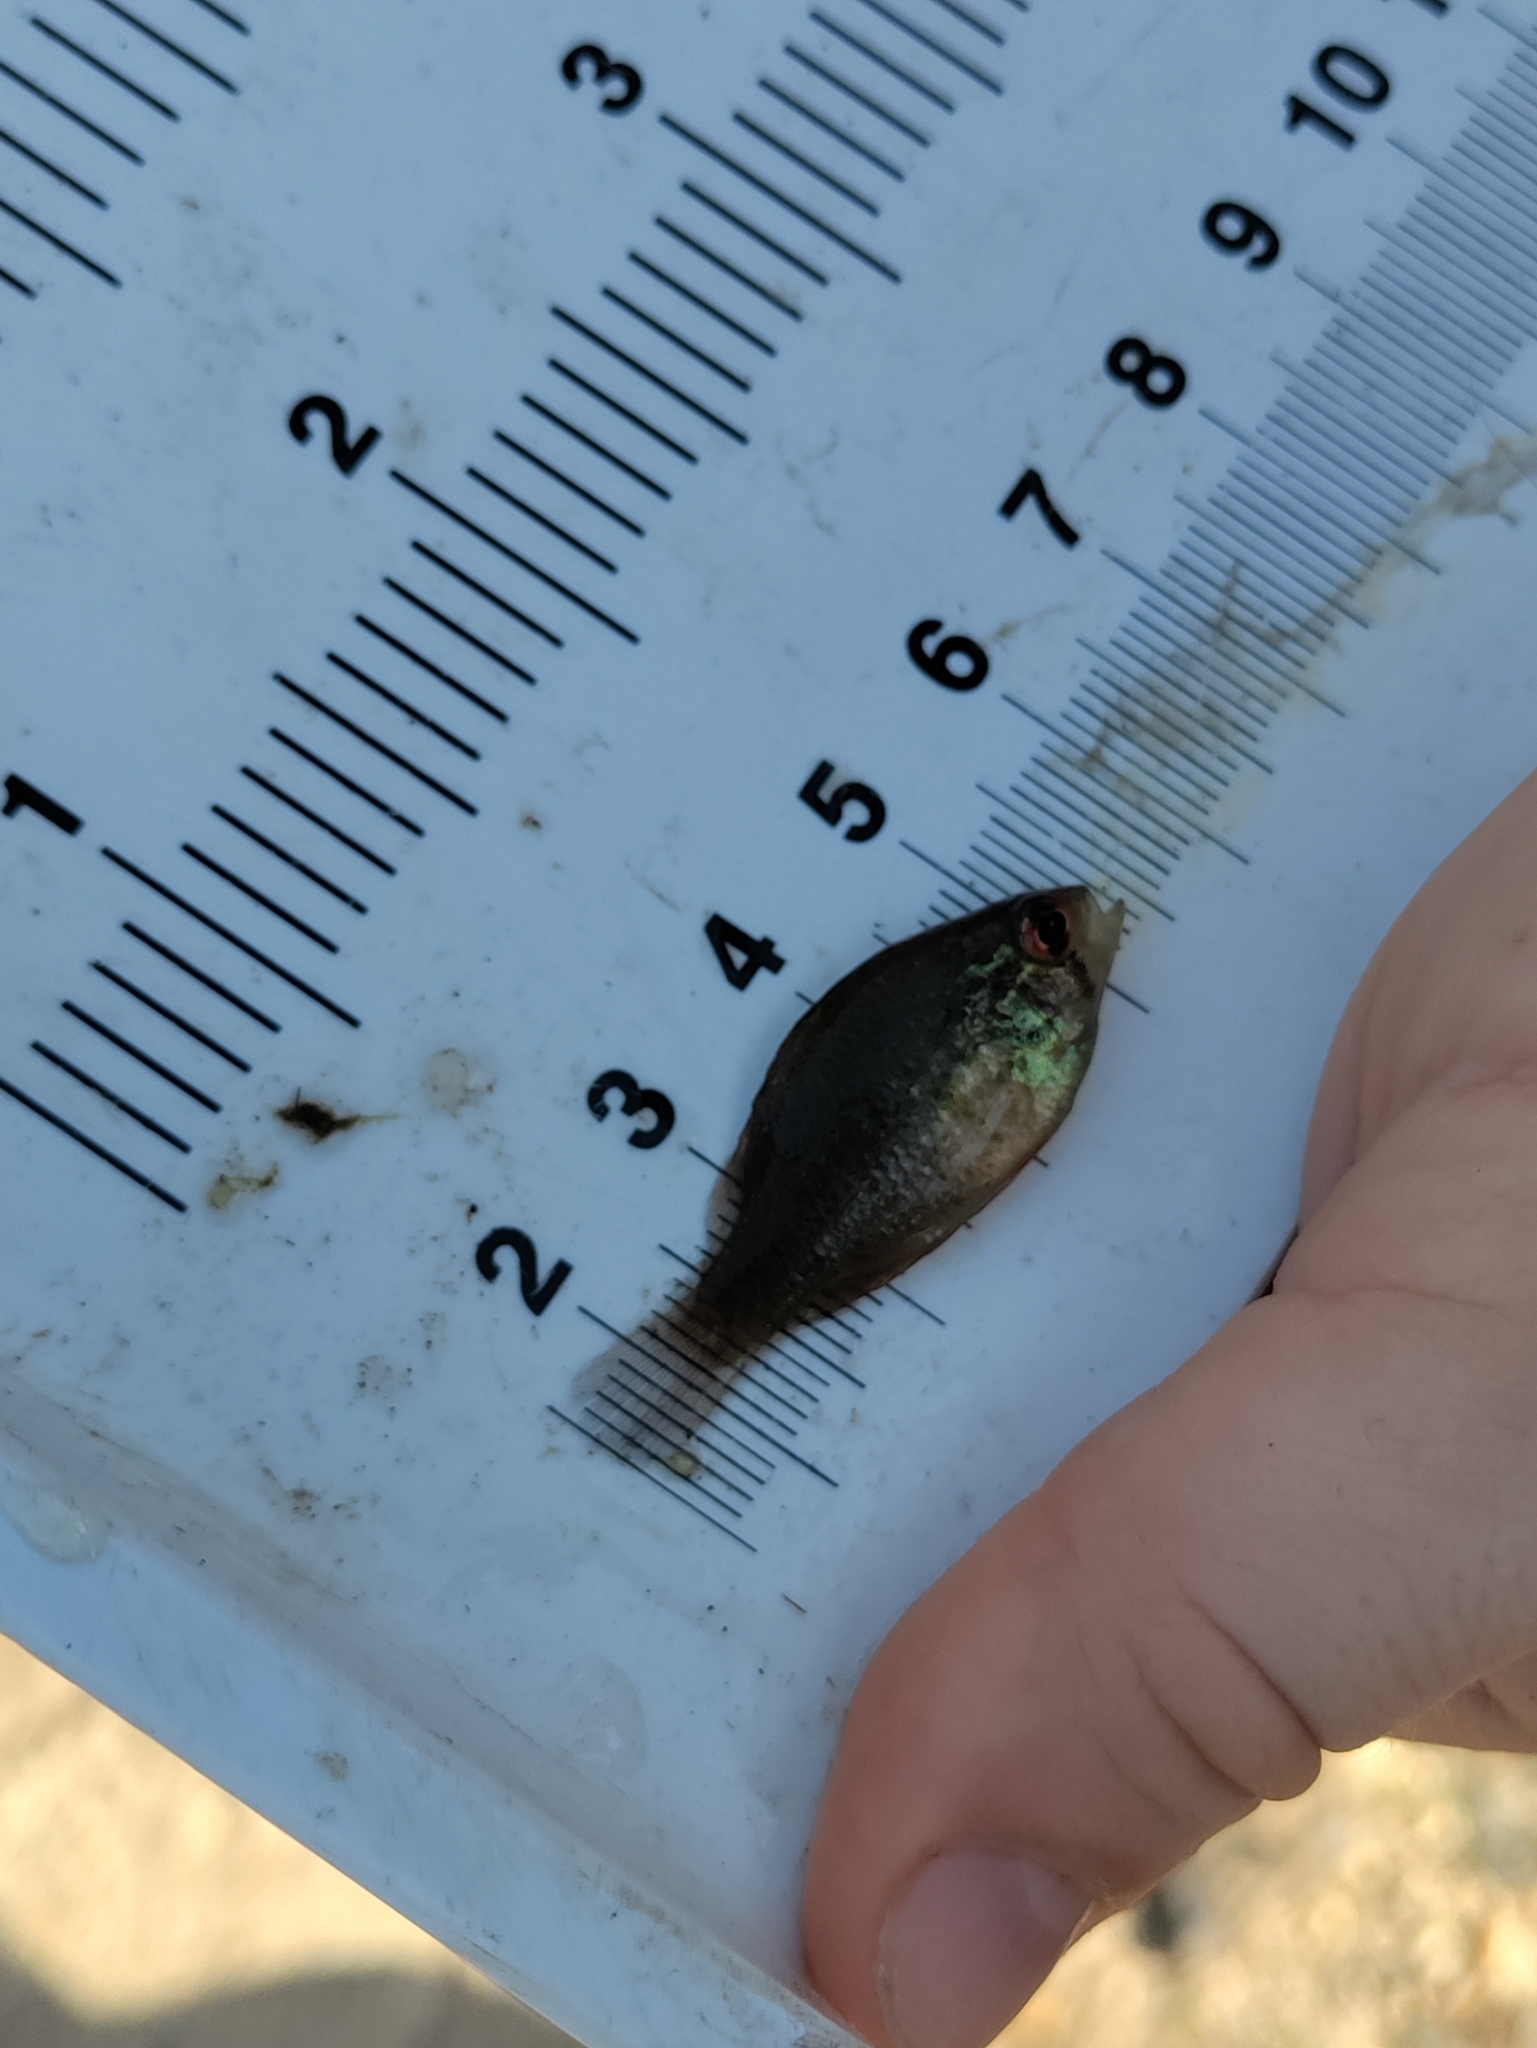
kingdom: Animalia
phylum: Chordata
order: Perciformes
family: Centrarchidae
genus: Enneacanthus
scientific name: Enneacanthus obesus
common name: Banded sunfish
